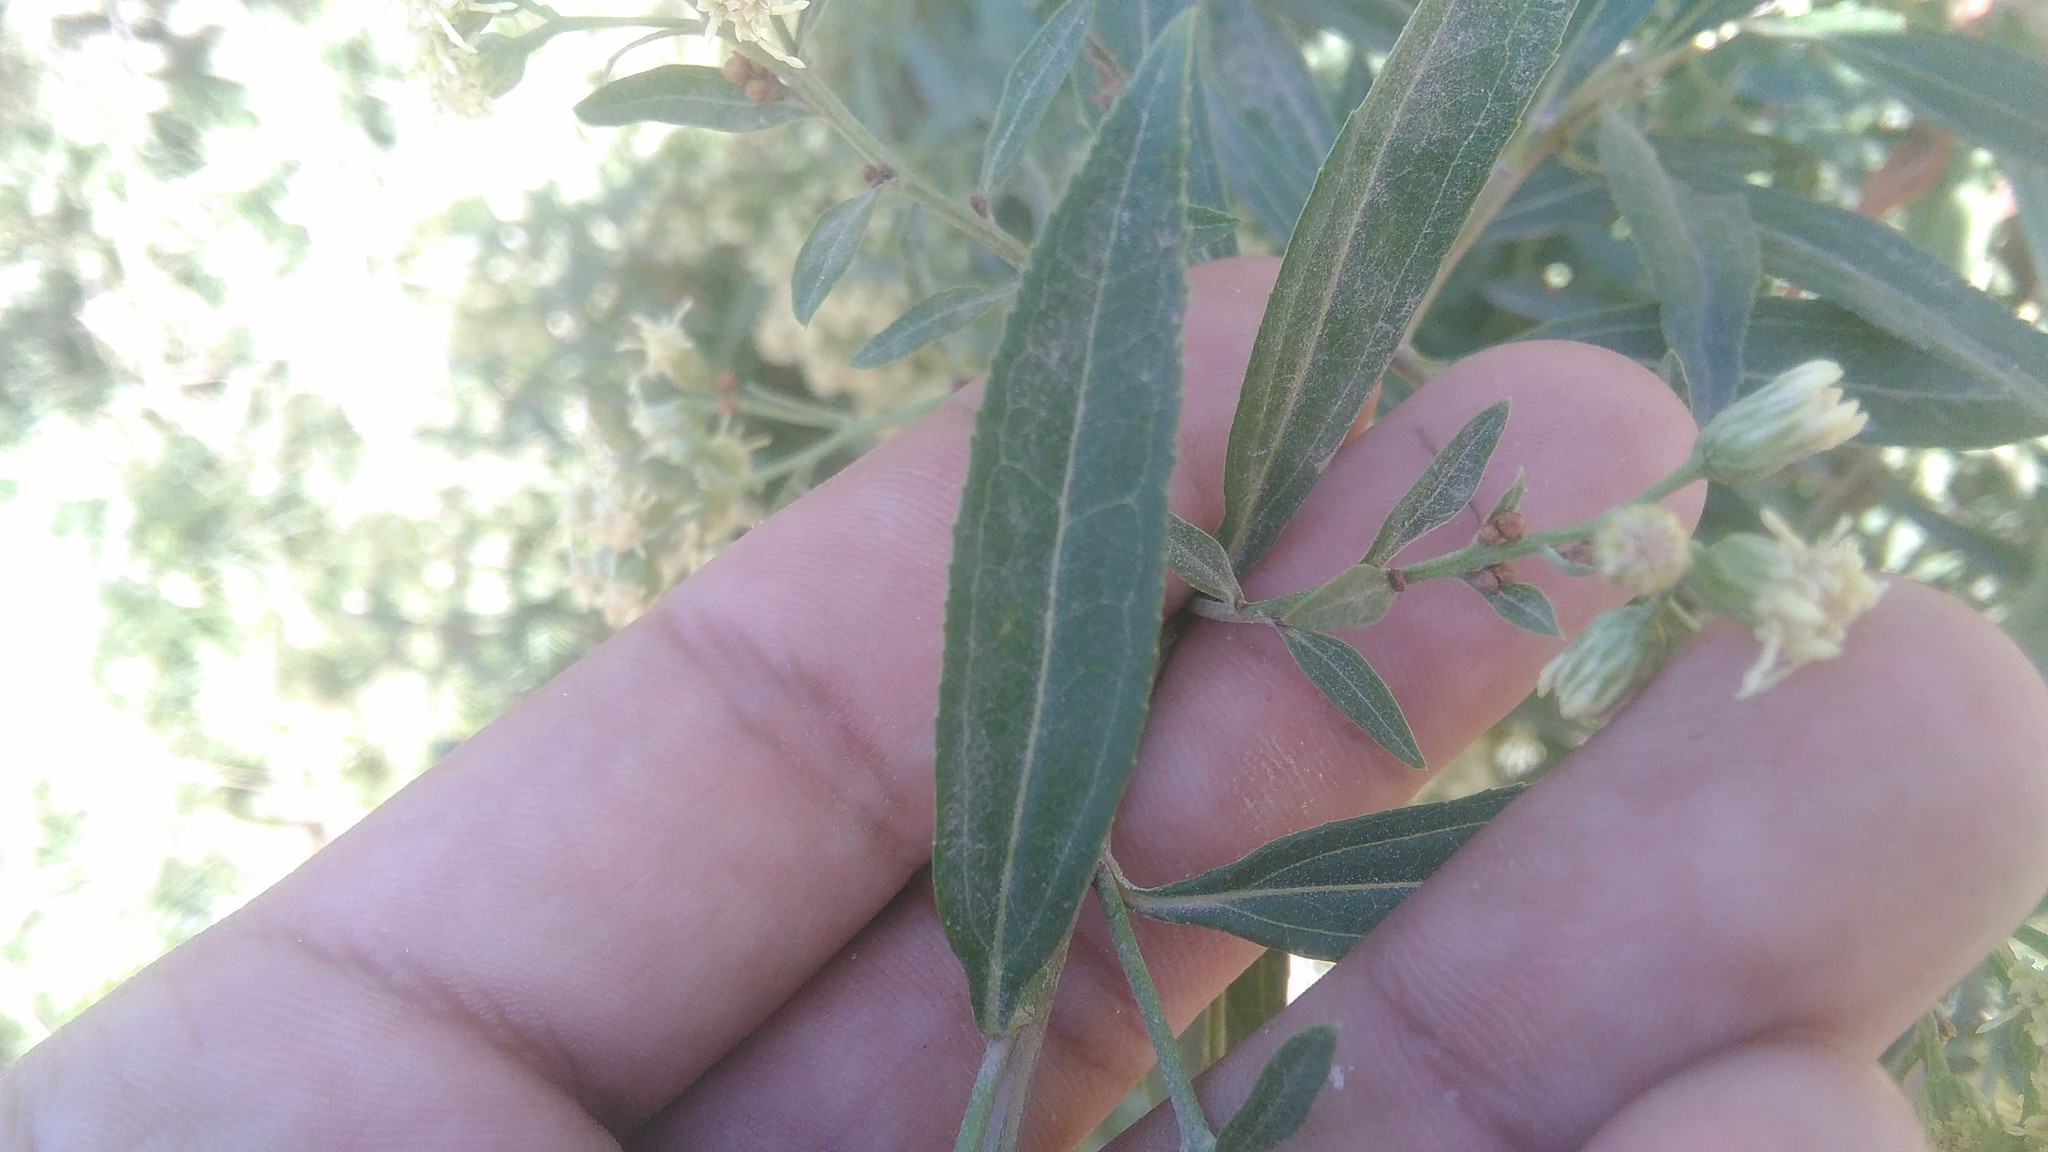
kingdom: Plantae
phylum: Tracheophyta
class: Magnoliopsida
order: Asterales
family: Asteraceae
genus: Baccharis
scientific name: Baccharis salicifolia
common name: Sticky baccharis
